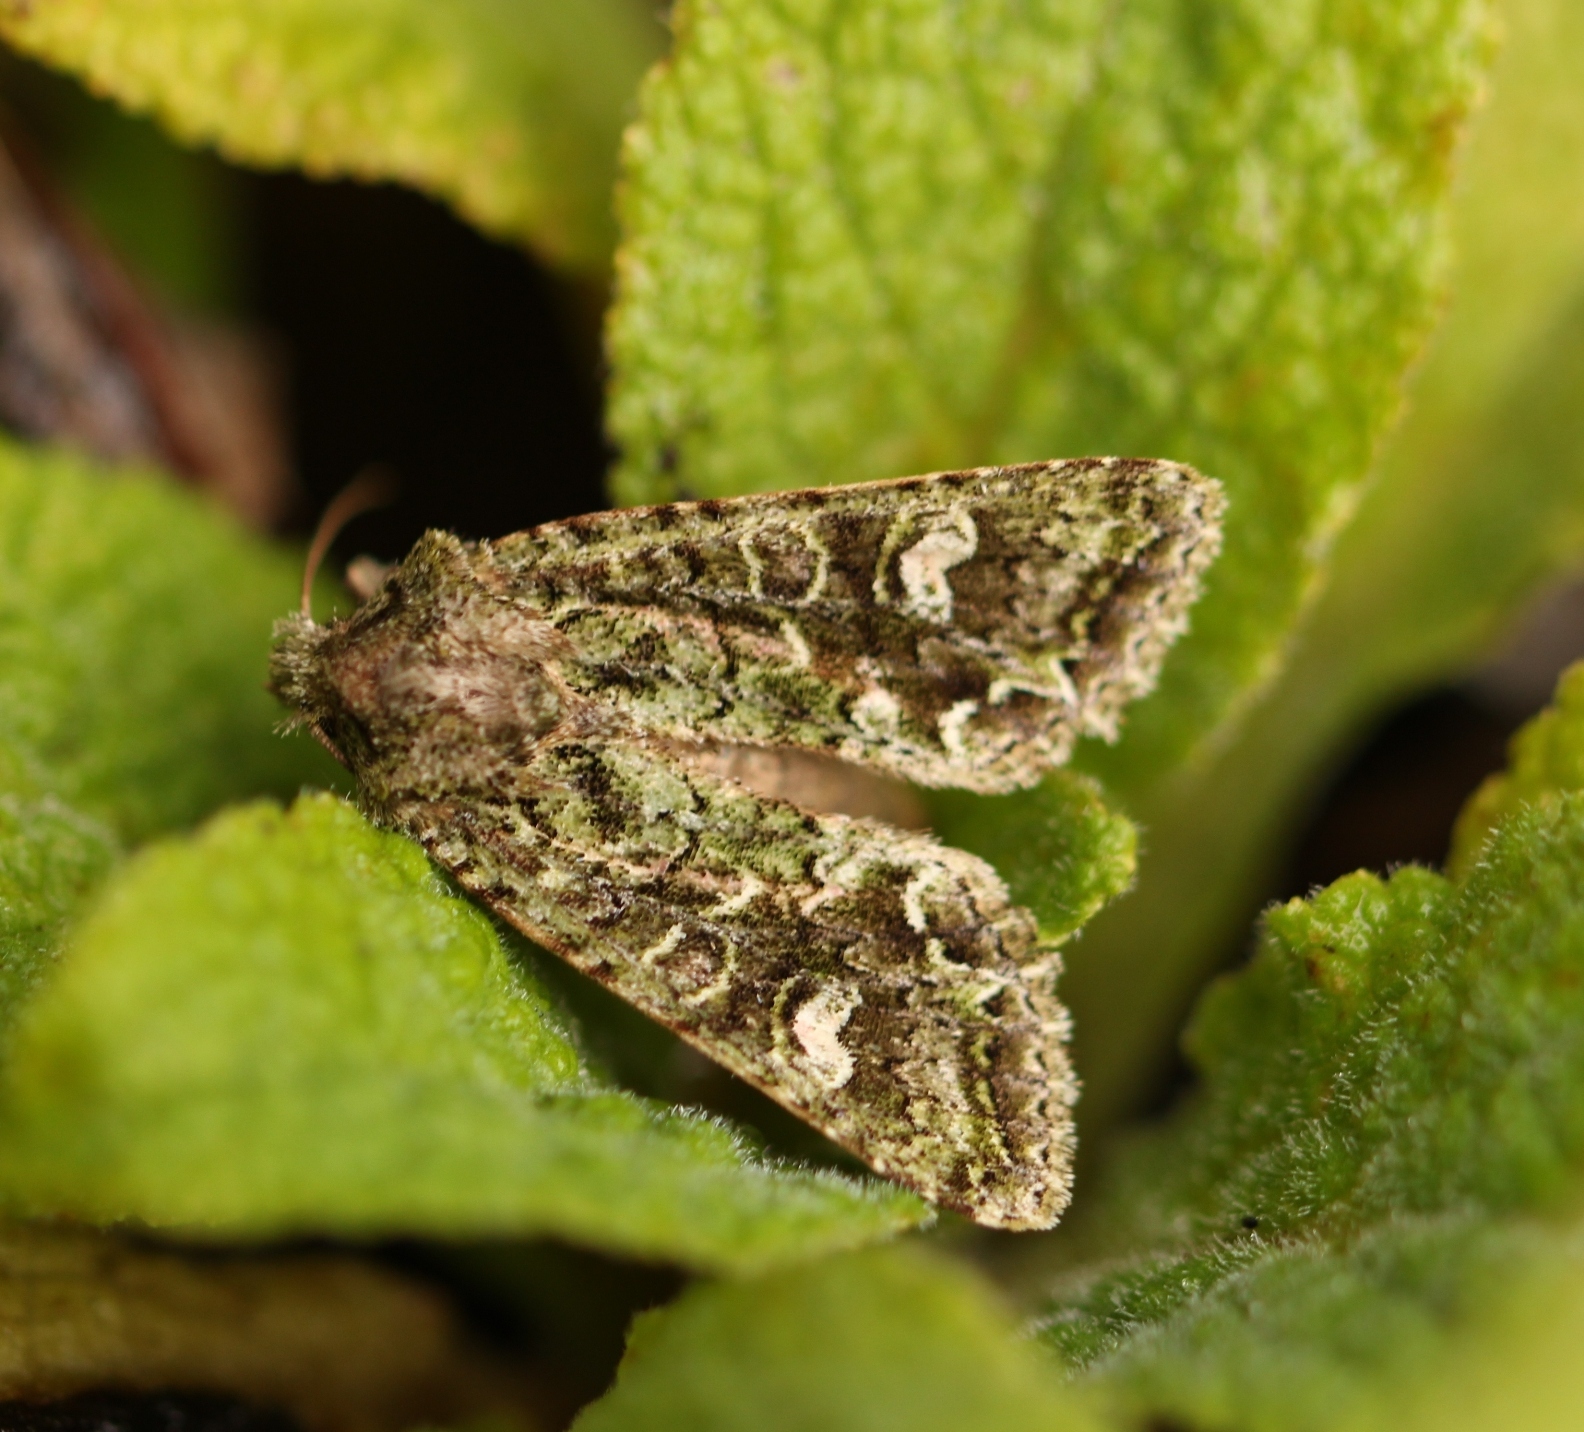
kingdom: Animalia
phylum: Arthropoda
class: Insecta
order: Lepidoptera
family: Noctuidae
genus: Ichneutica
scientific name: Ichneutica
